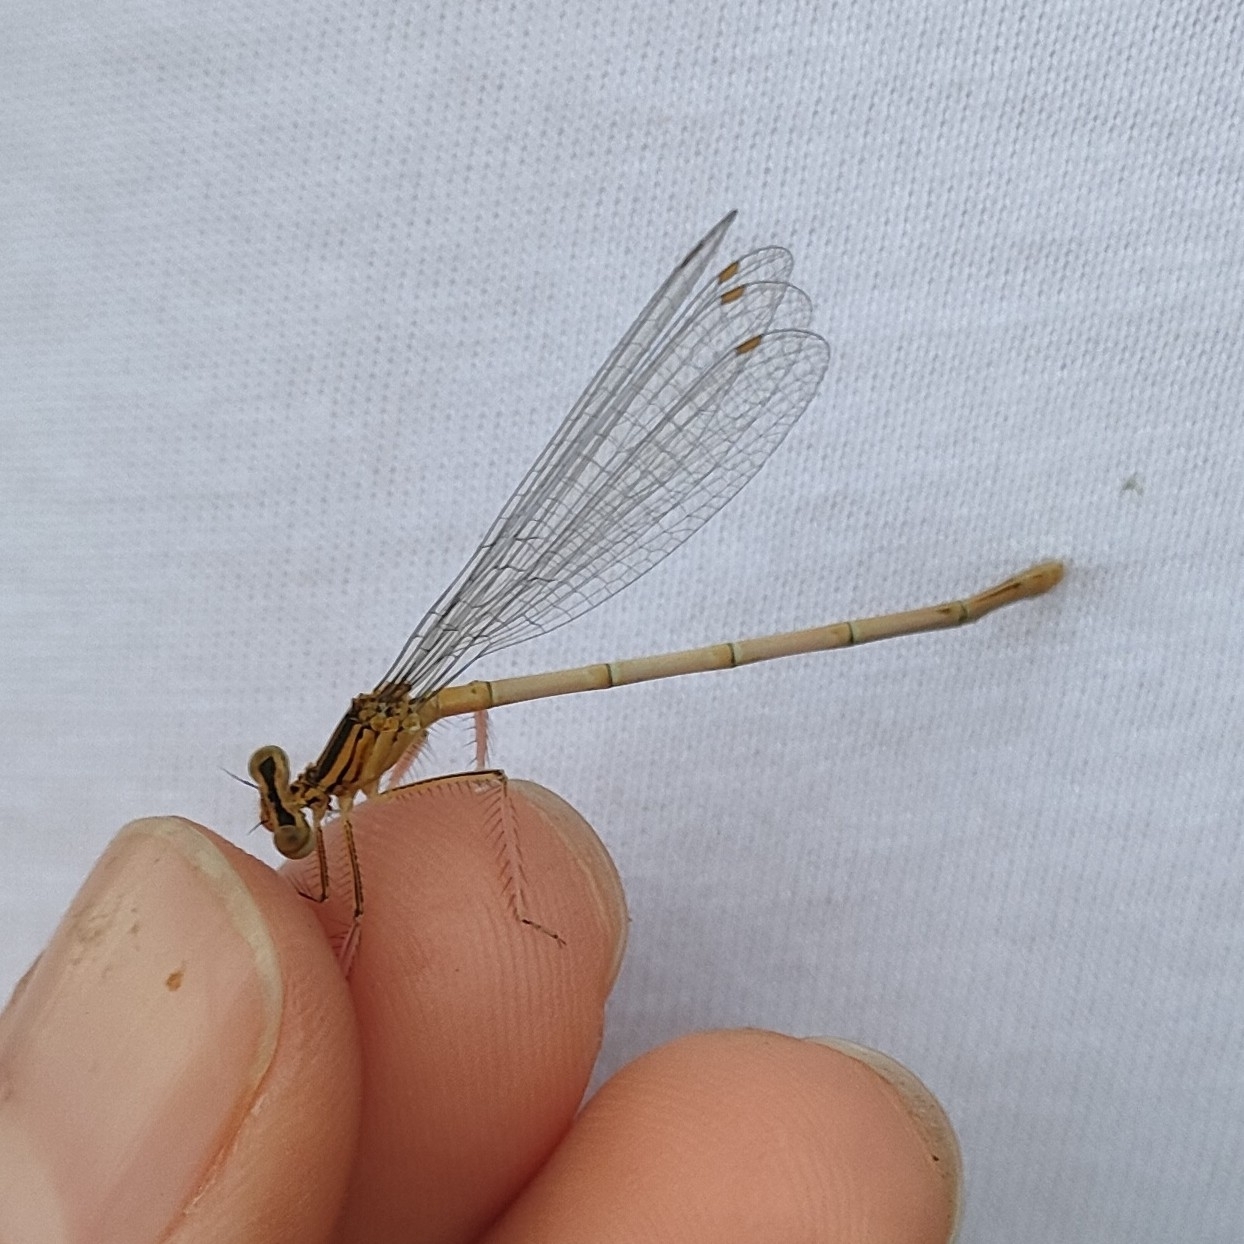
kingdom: Animalia
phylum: Arthropoda
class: Insecta
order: Odonata
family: Platycnemididae
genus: Platycnemis
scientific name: Platycnemis pennipes
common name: White-legged damselfly
